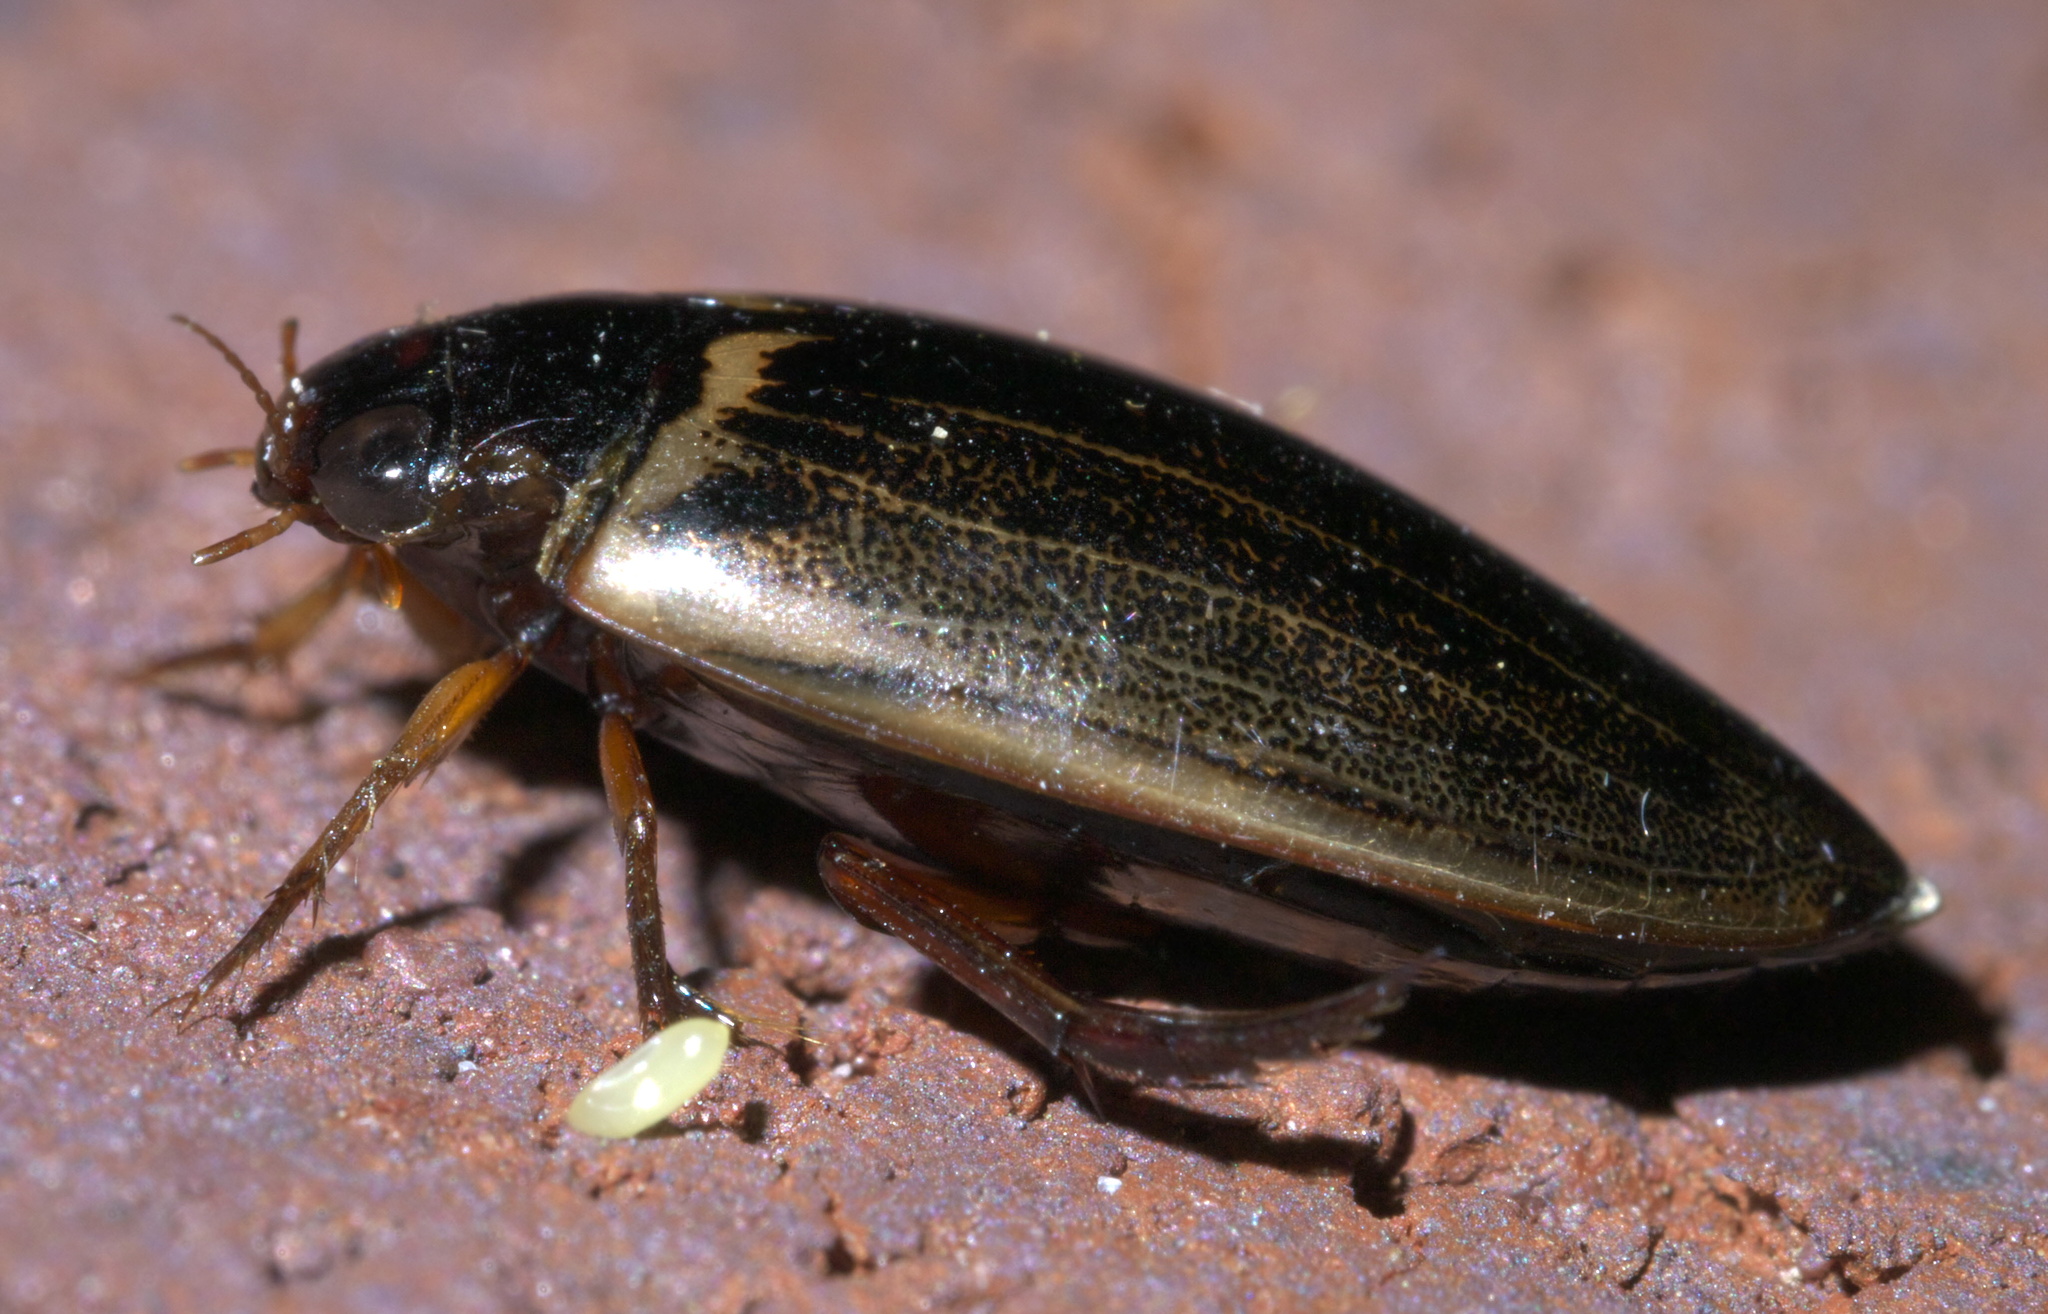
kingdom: Animalia
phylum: Arthropoda
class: Insecta
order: Coleoptera
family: Dytiscidae
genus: Meridiorhantus
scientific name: Meridiorhantus calidus
